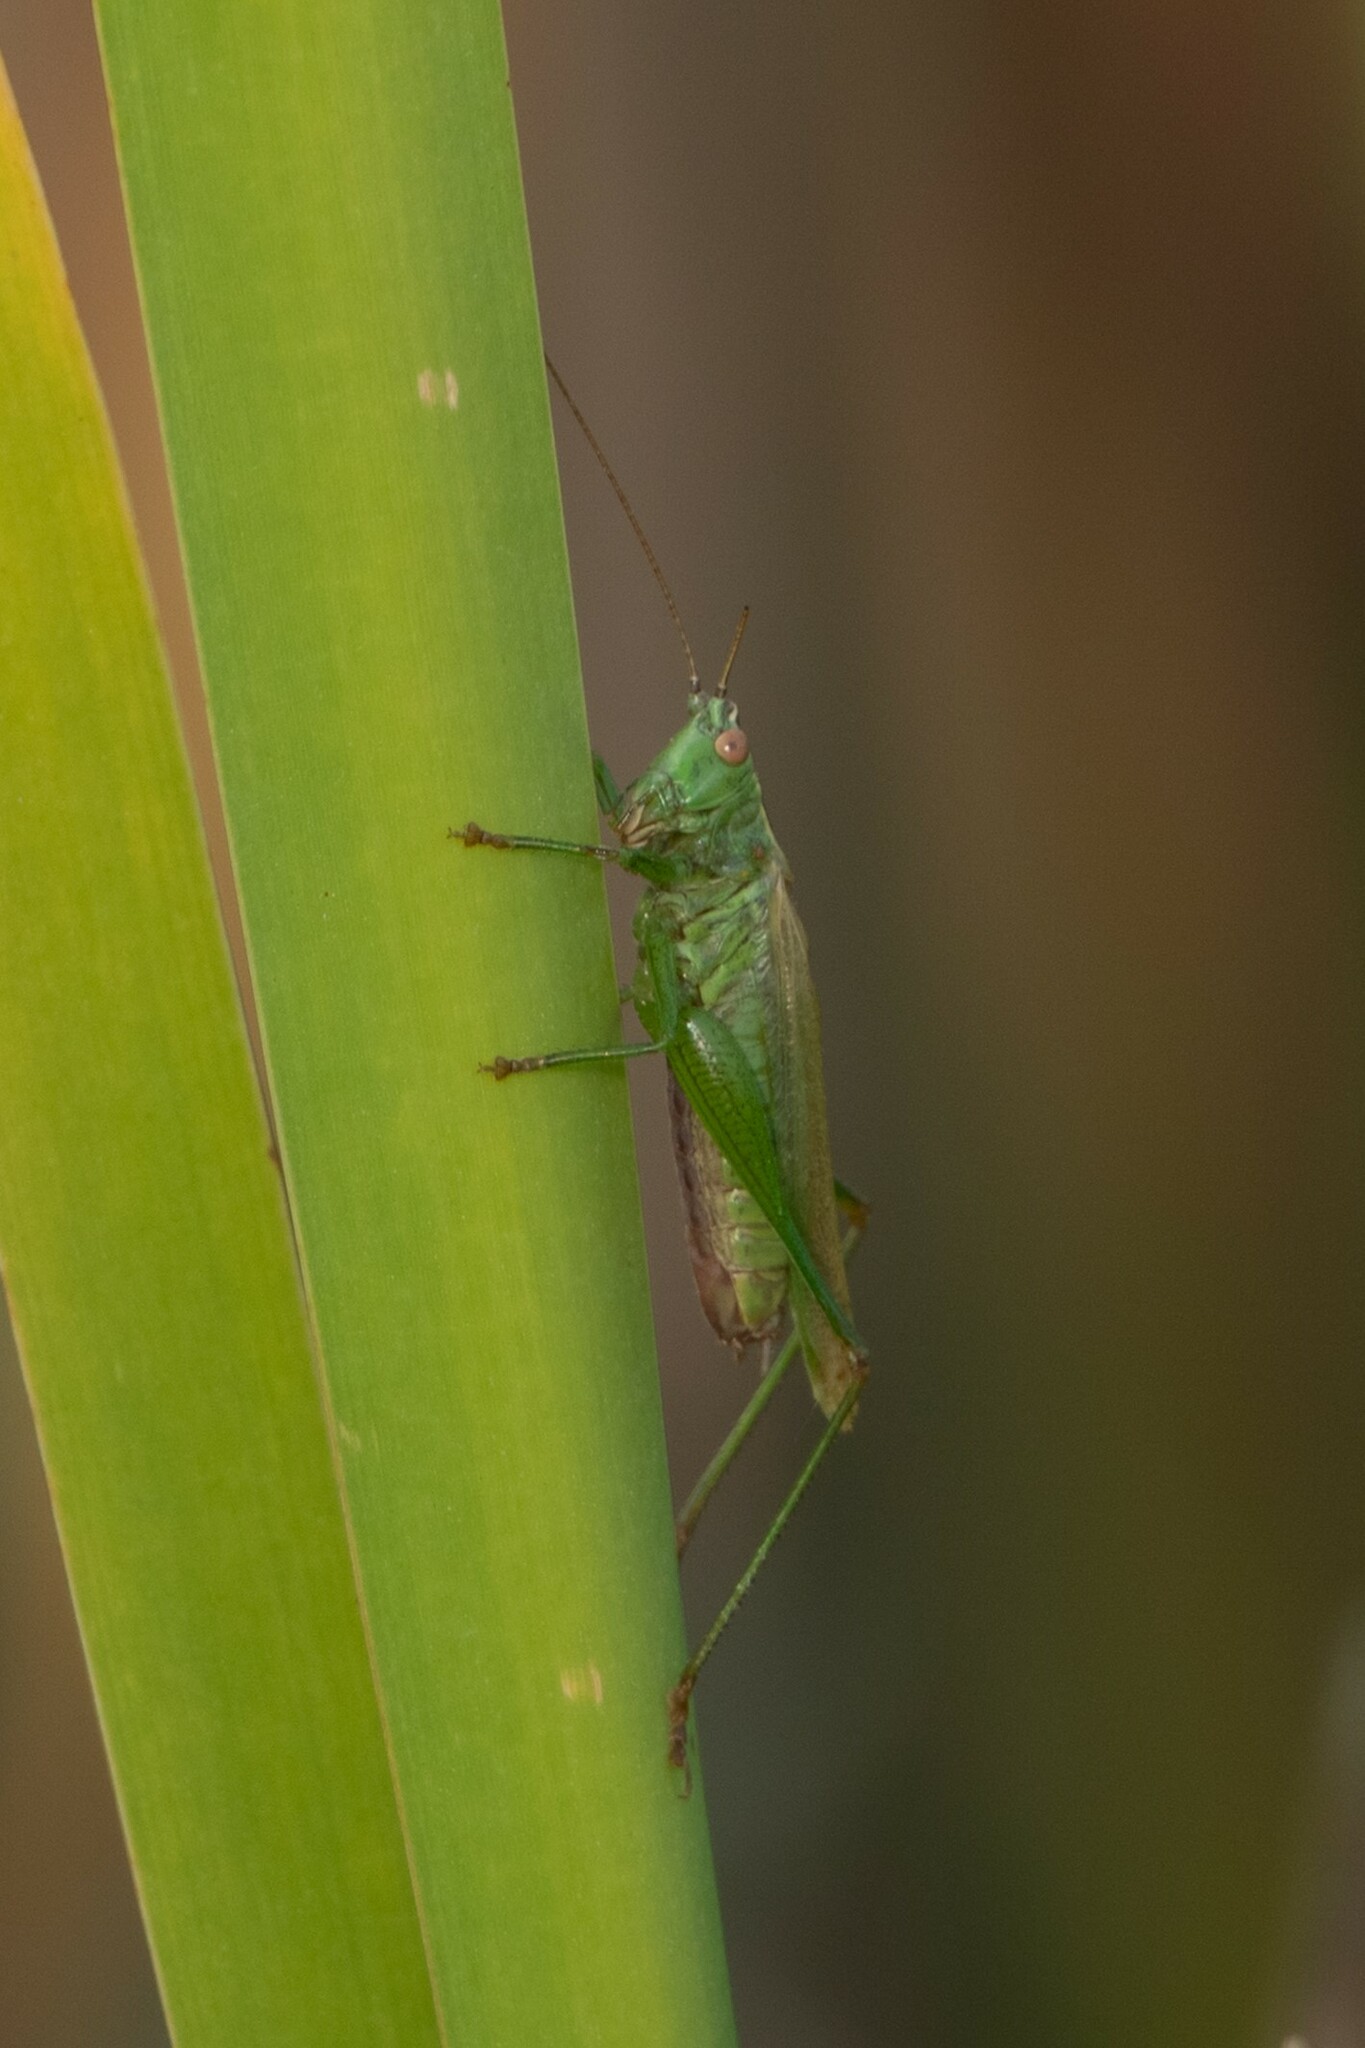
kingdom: Animalia
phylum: Arthropoda
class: Insecta
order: Orthoptera
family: Tettigoniidae
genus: Conocephalus
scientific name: Conocephalus fuscus
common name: Long-winged conehead
